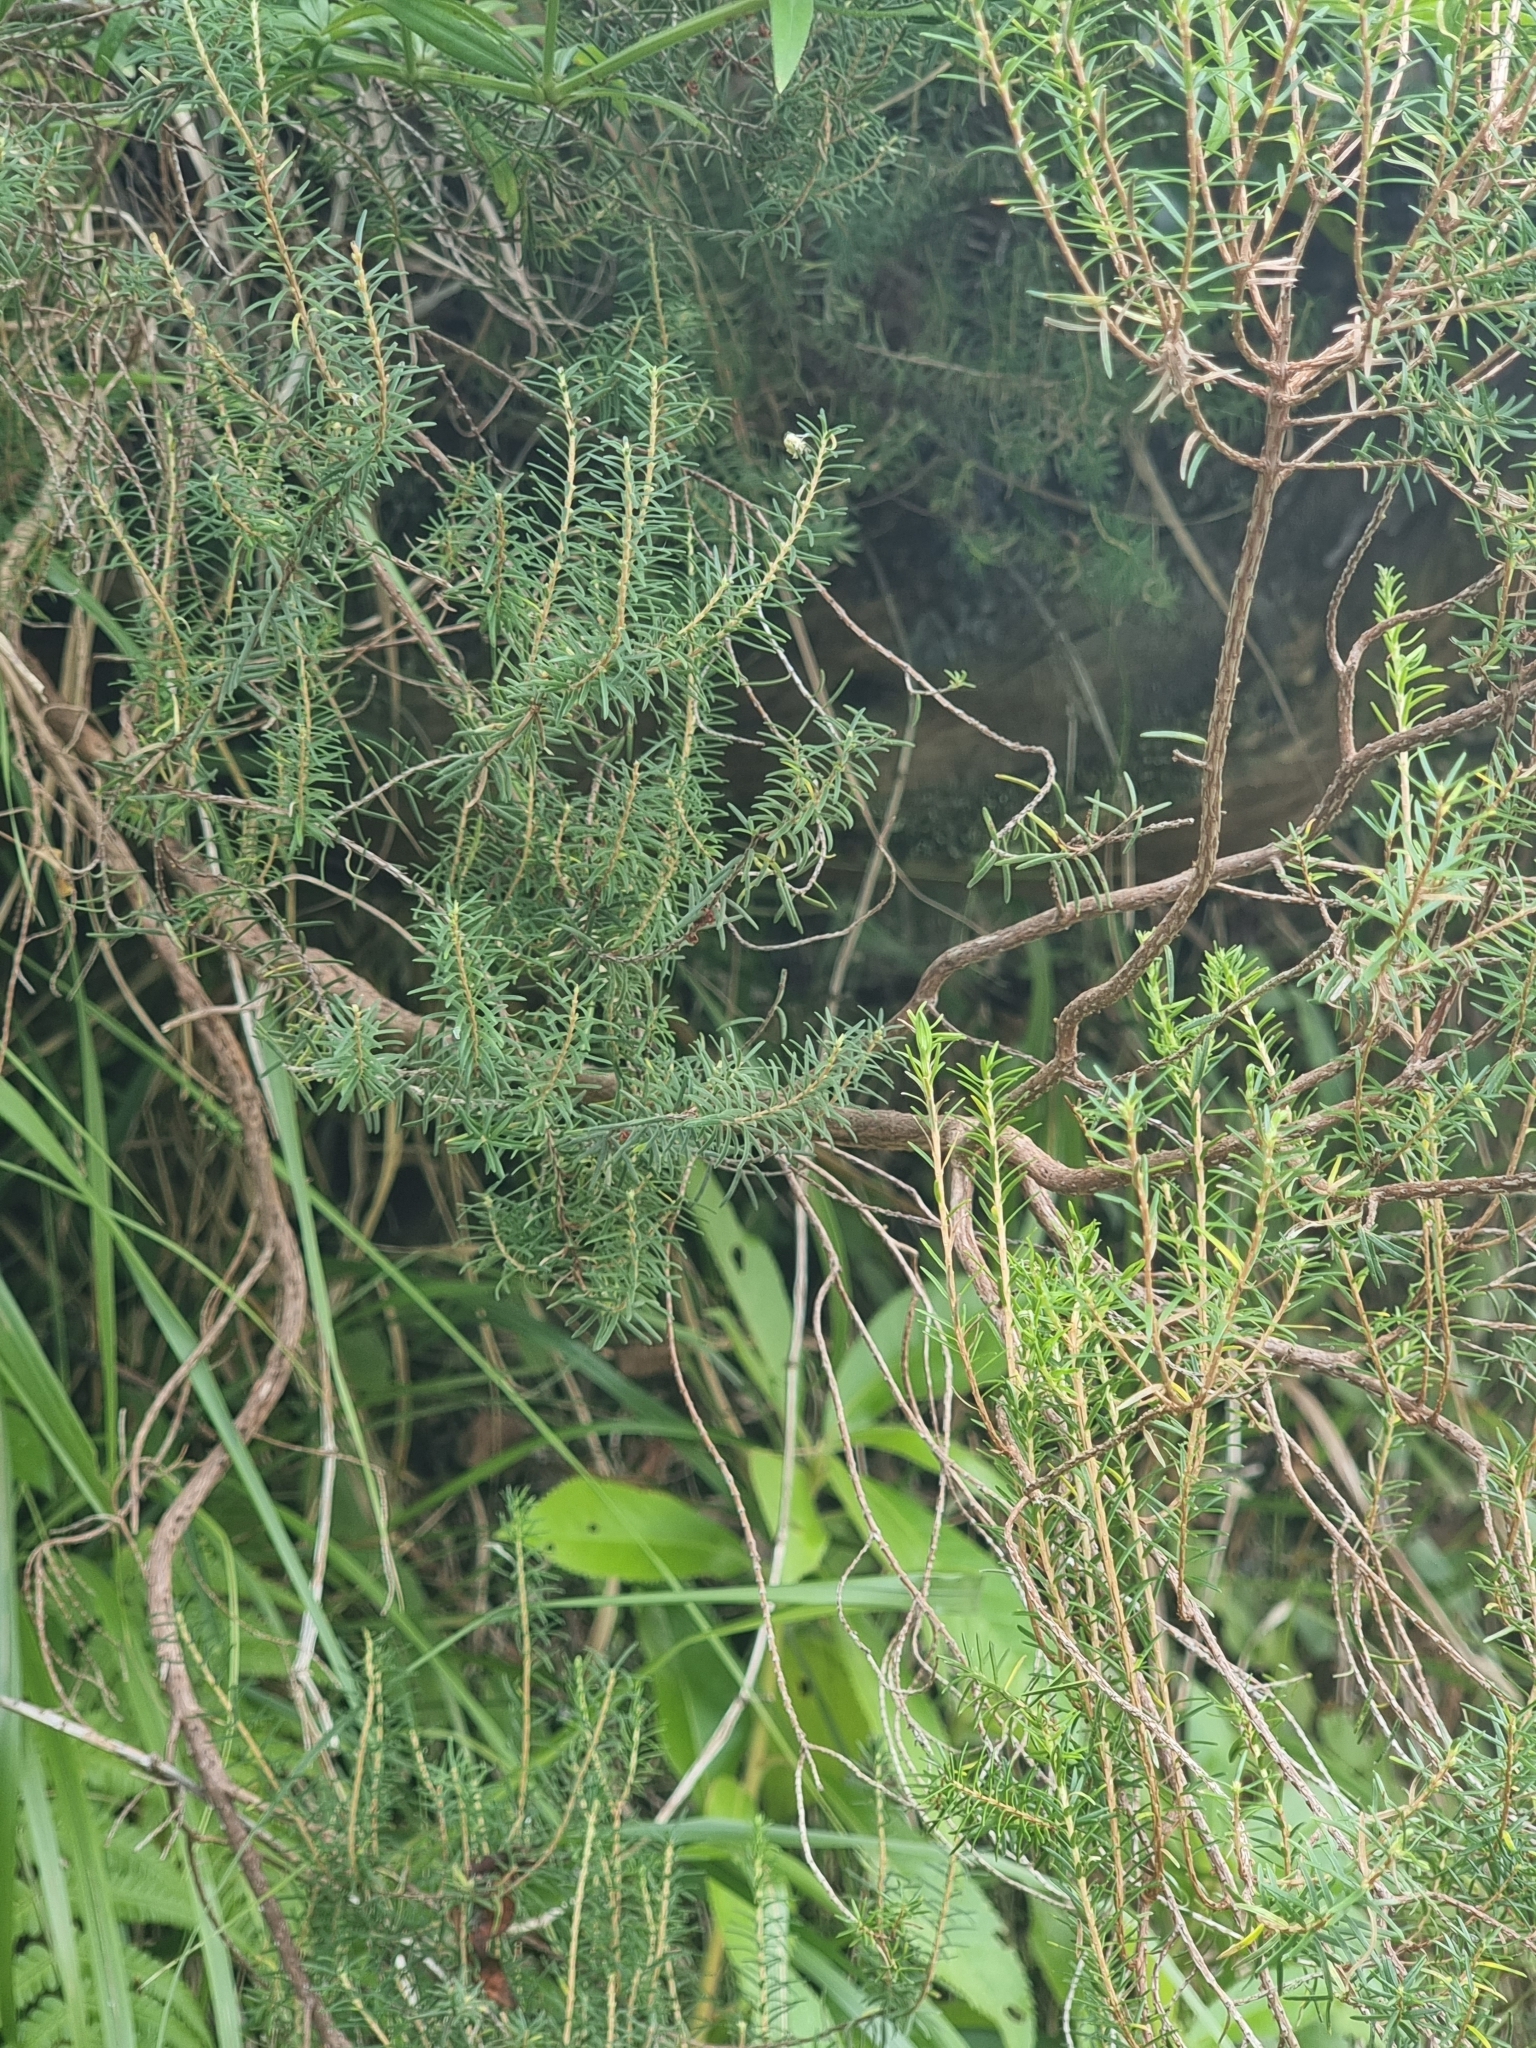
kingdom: Plantae
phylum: Tracheophyta
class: Magnoliopsida
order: Ericales
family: Ericaceae
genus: Erica
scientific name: Erica platycodon
